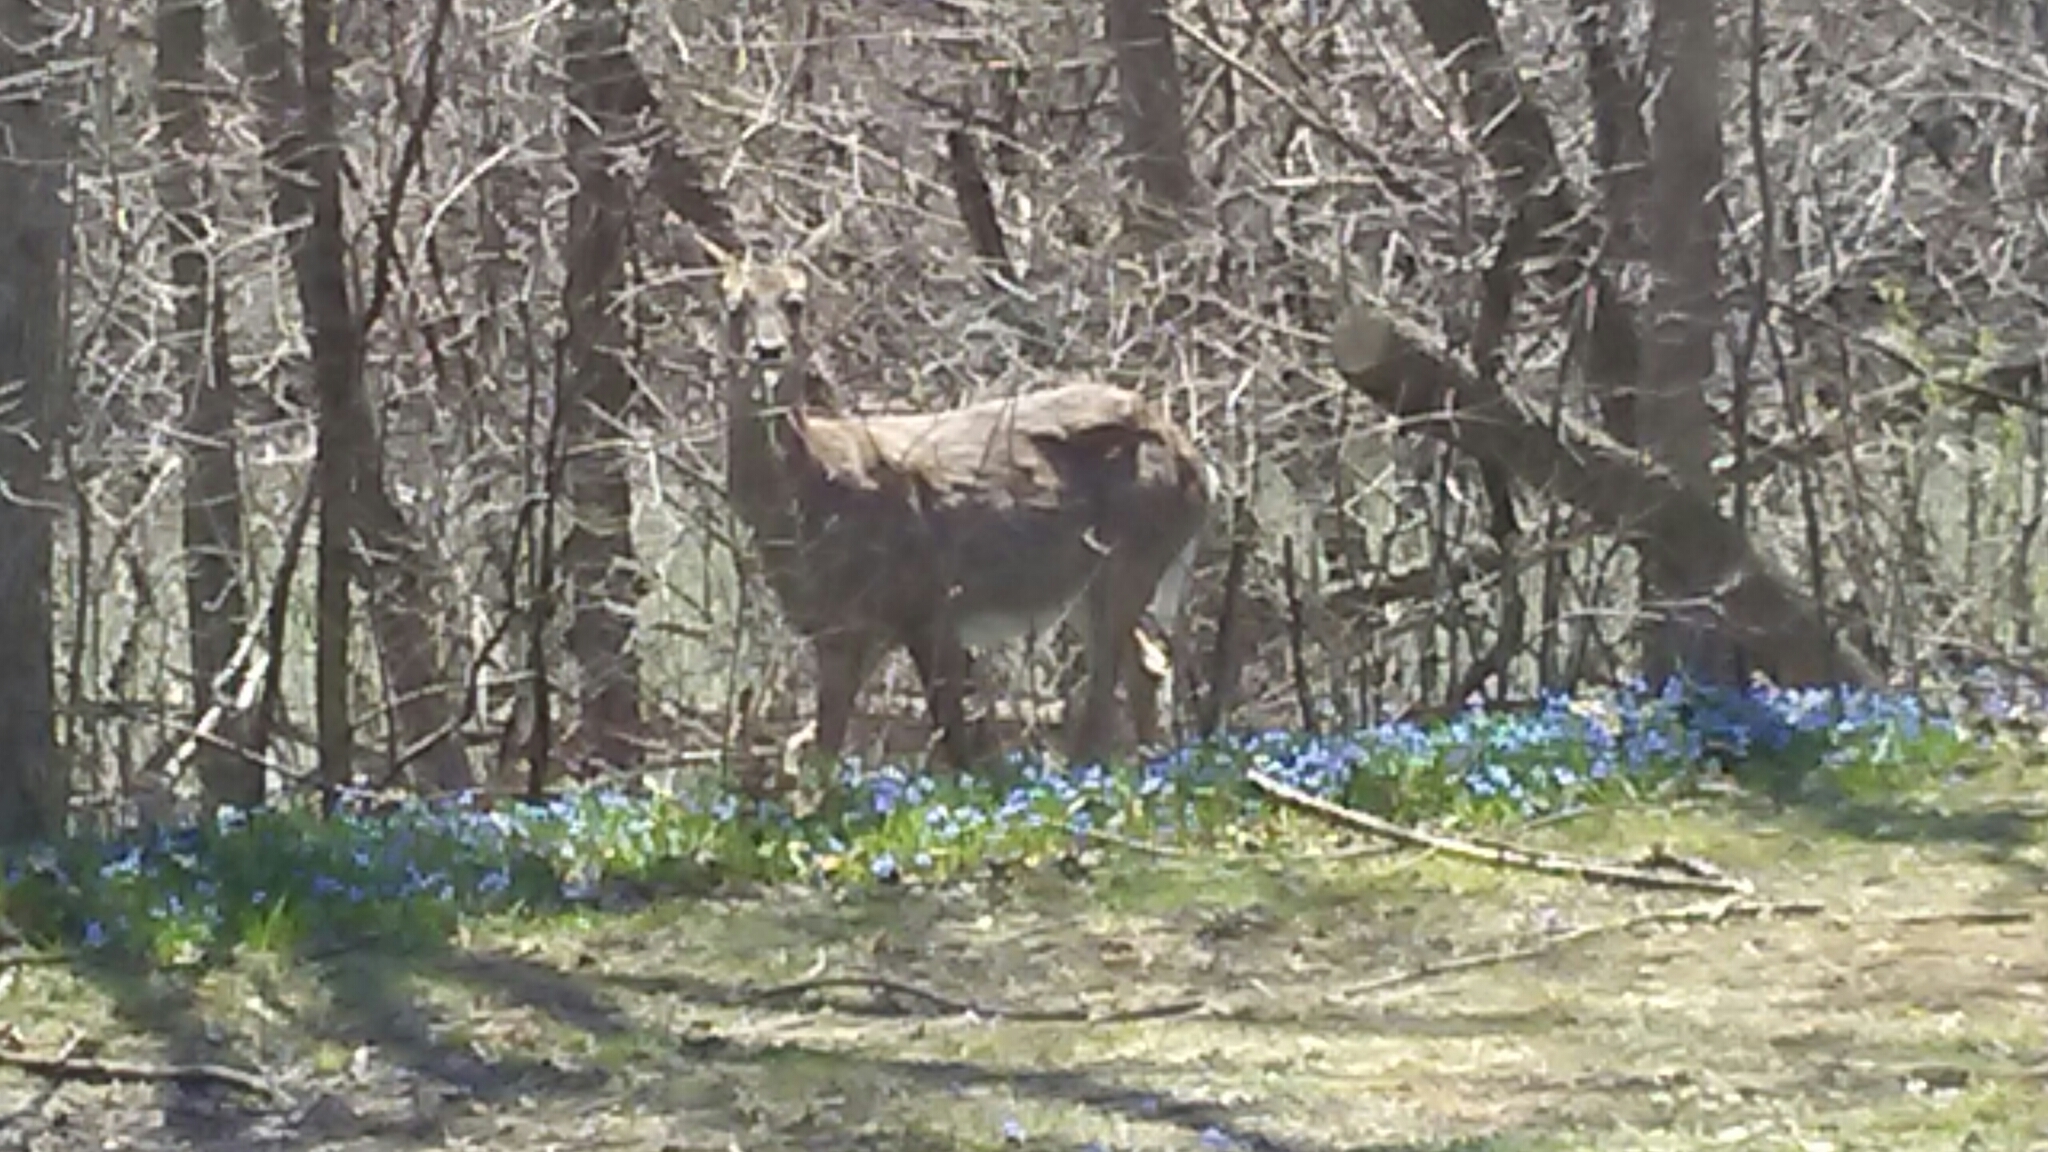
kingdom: Animalia
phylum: Chordata
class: Mammalia
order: Artiodactyla
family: Cervidae
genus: Odocoileus
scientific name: Odocoileus virginianus
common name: White-tailed deer
